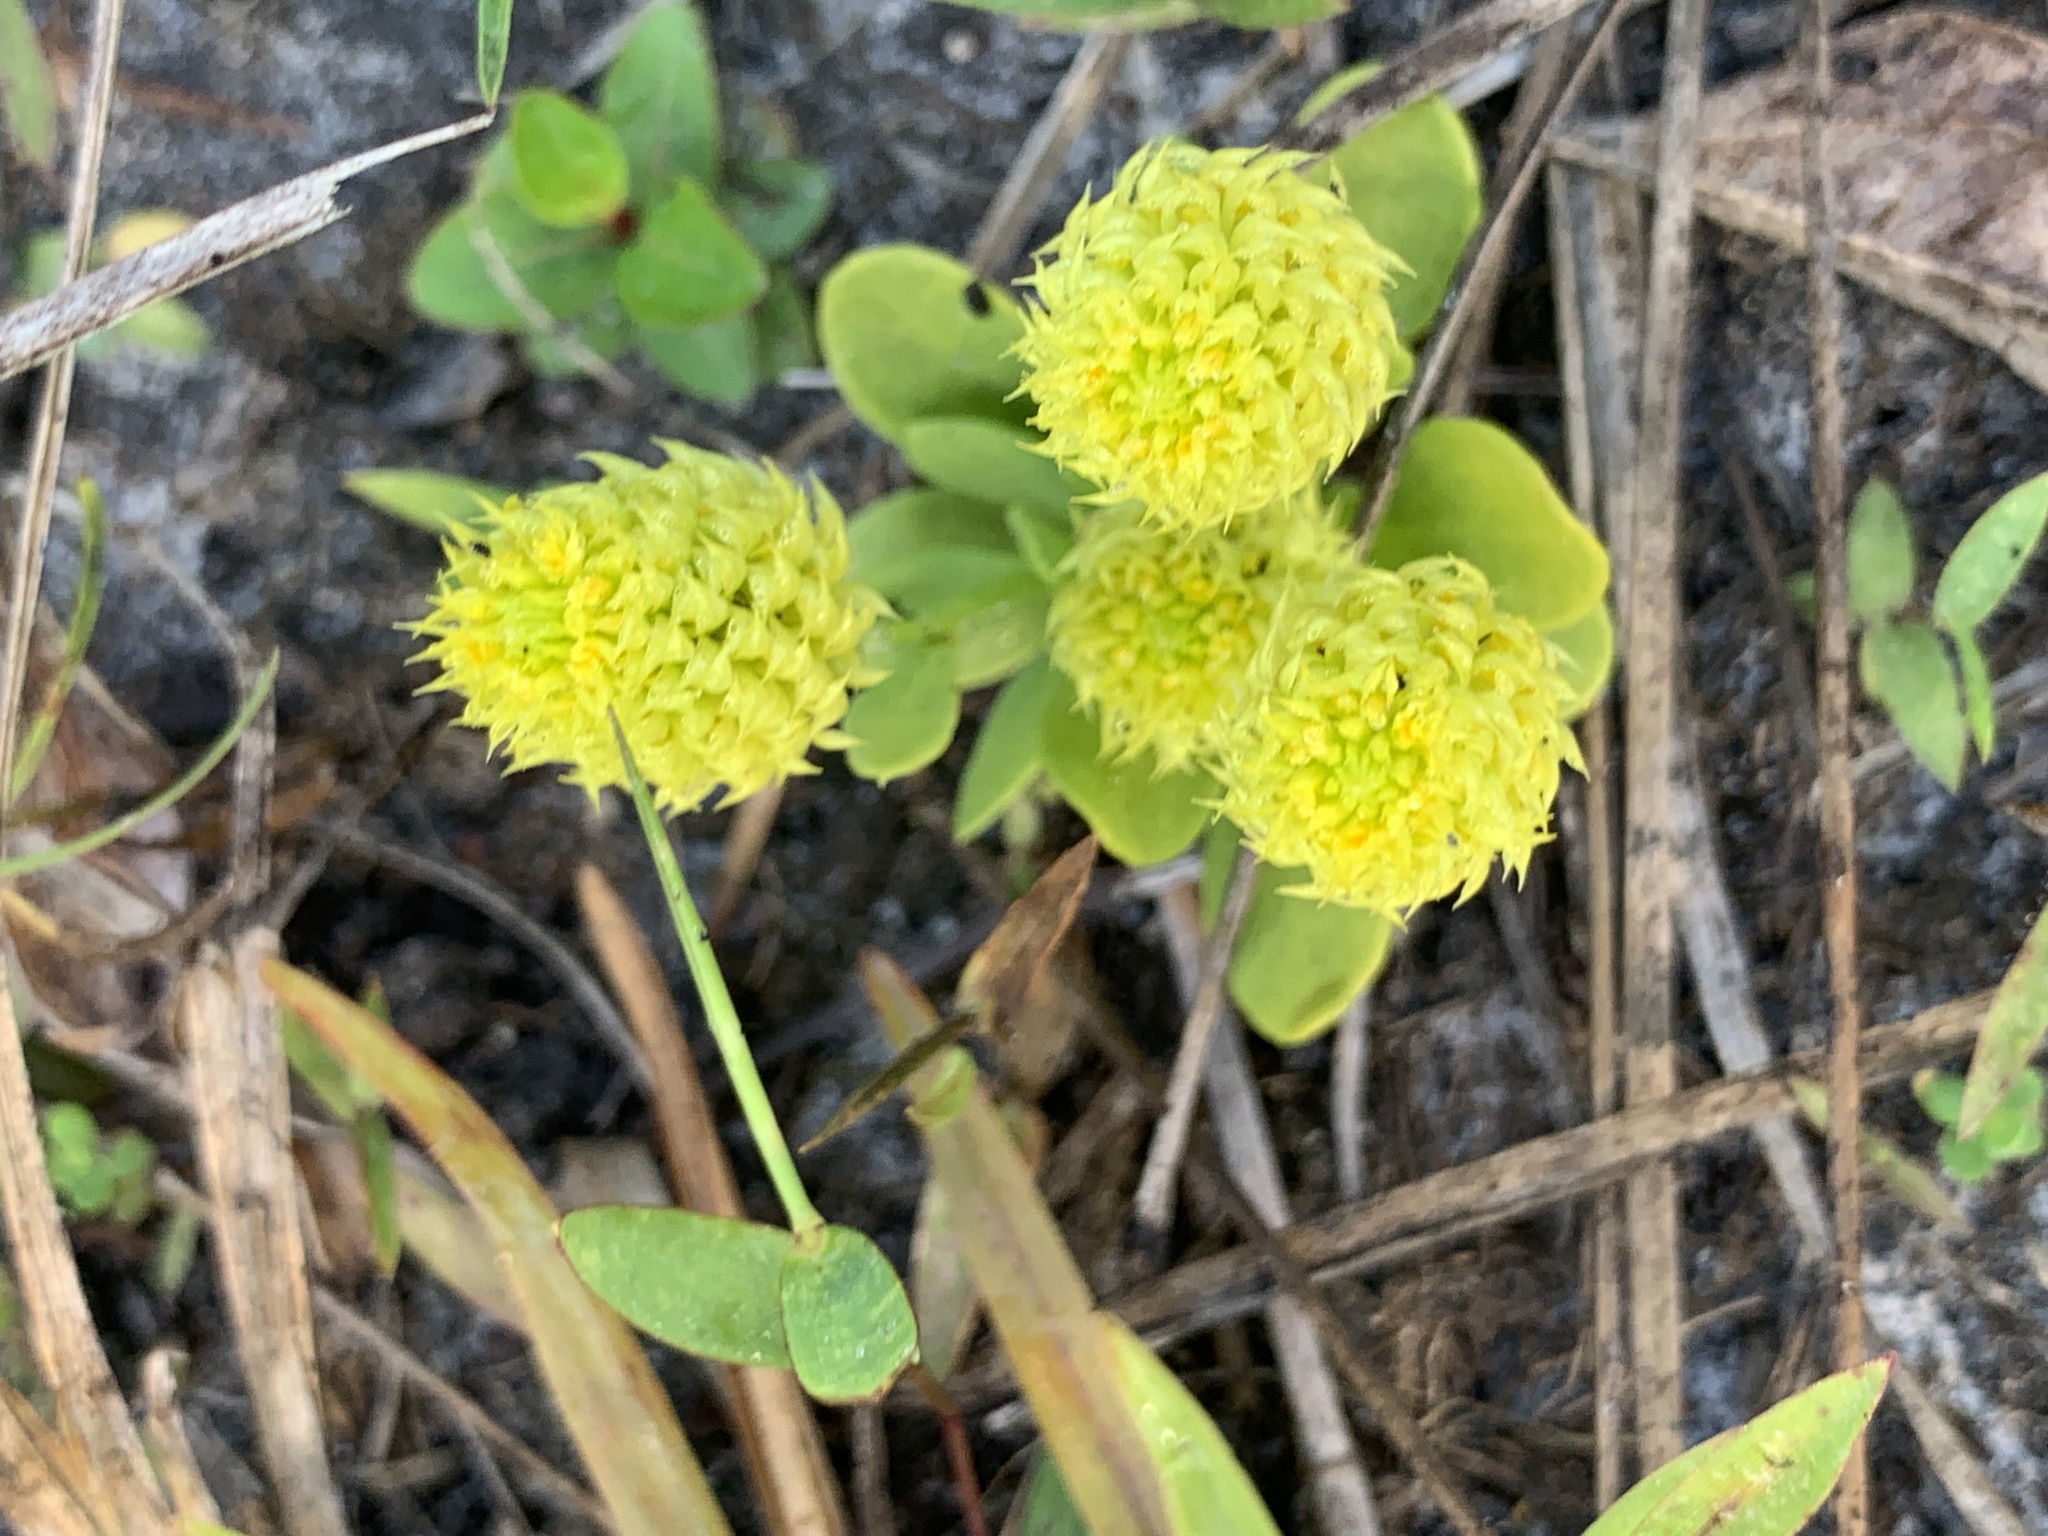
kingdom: Plantae
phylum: Tracheophyta
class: Magnoliopsida
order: Fabales
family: Polygalaceae
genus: Polygala
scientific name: Polygala nana
